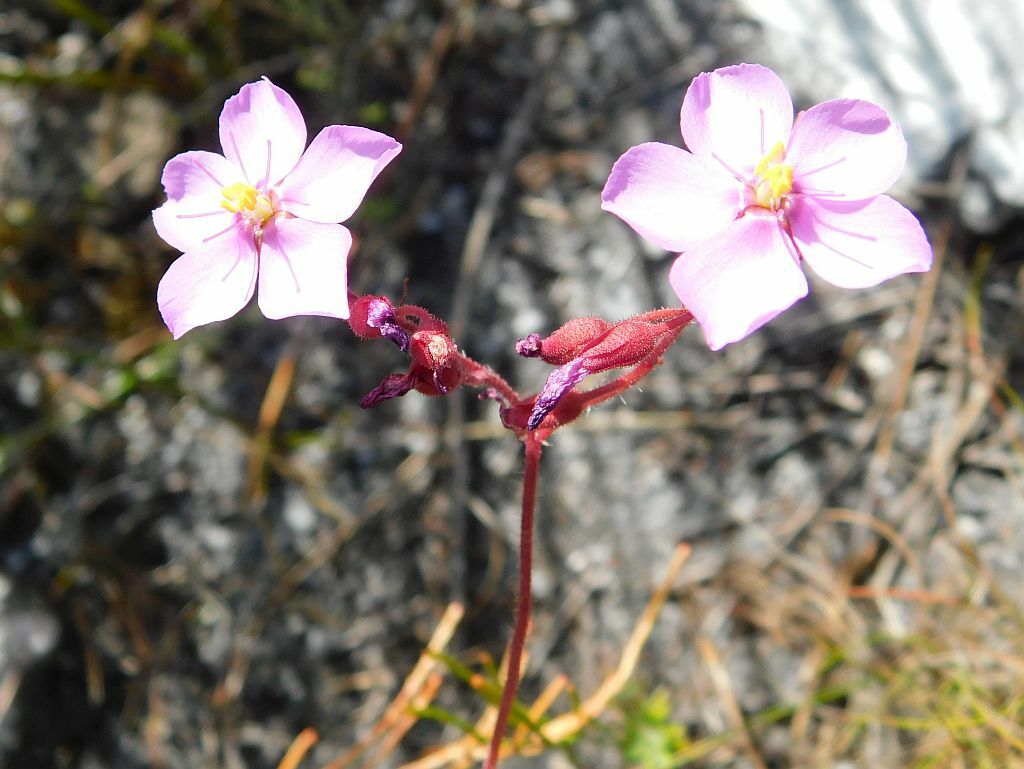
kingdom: Plantae
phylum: Tracheophyta
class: Magnoliopsida
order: Caryophyllales
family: Droseraceae
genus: Drosera
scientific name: Drosera ramentacea
